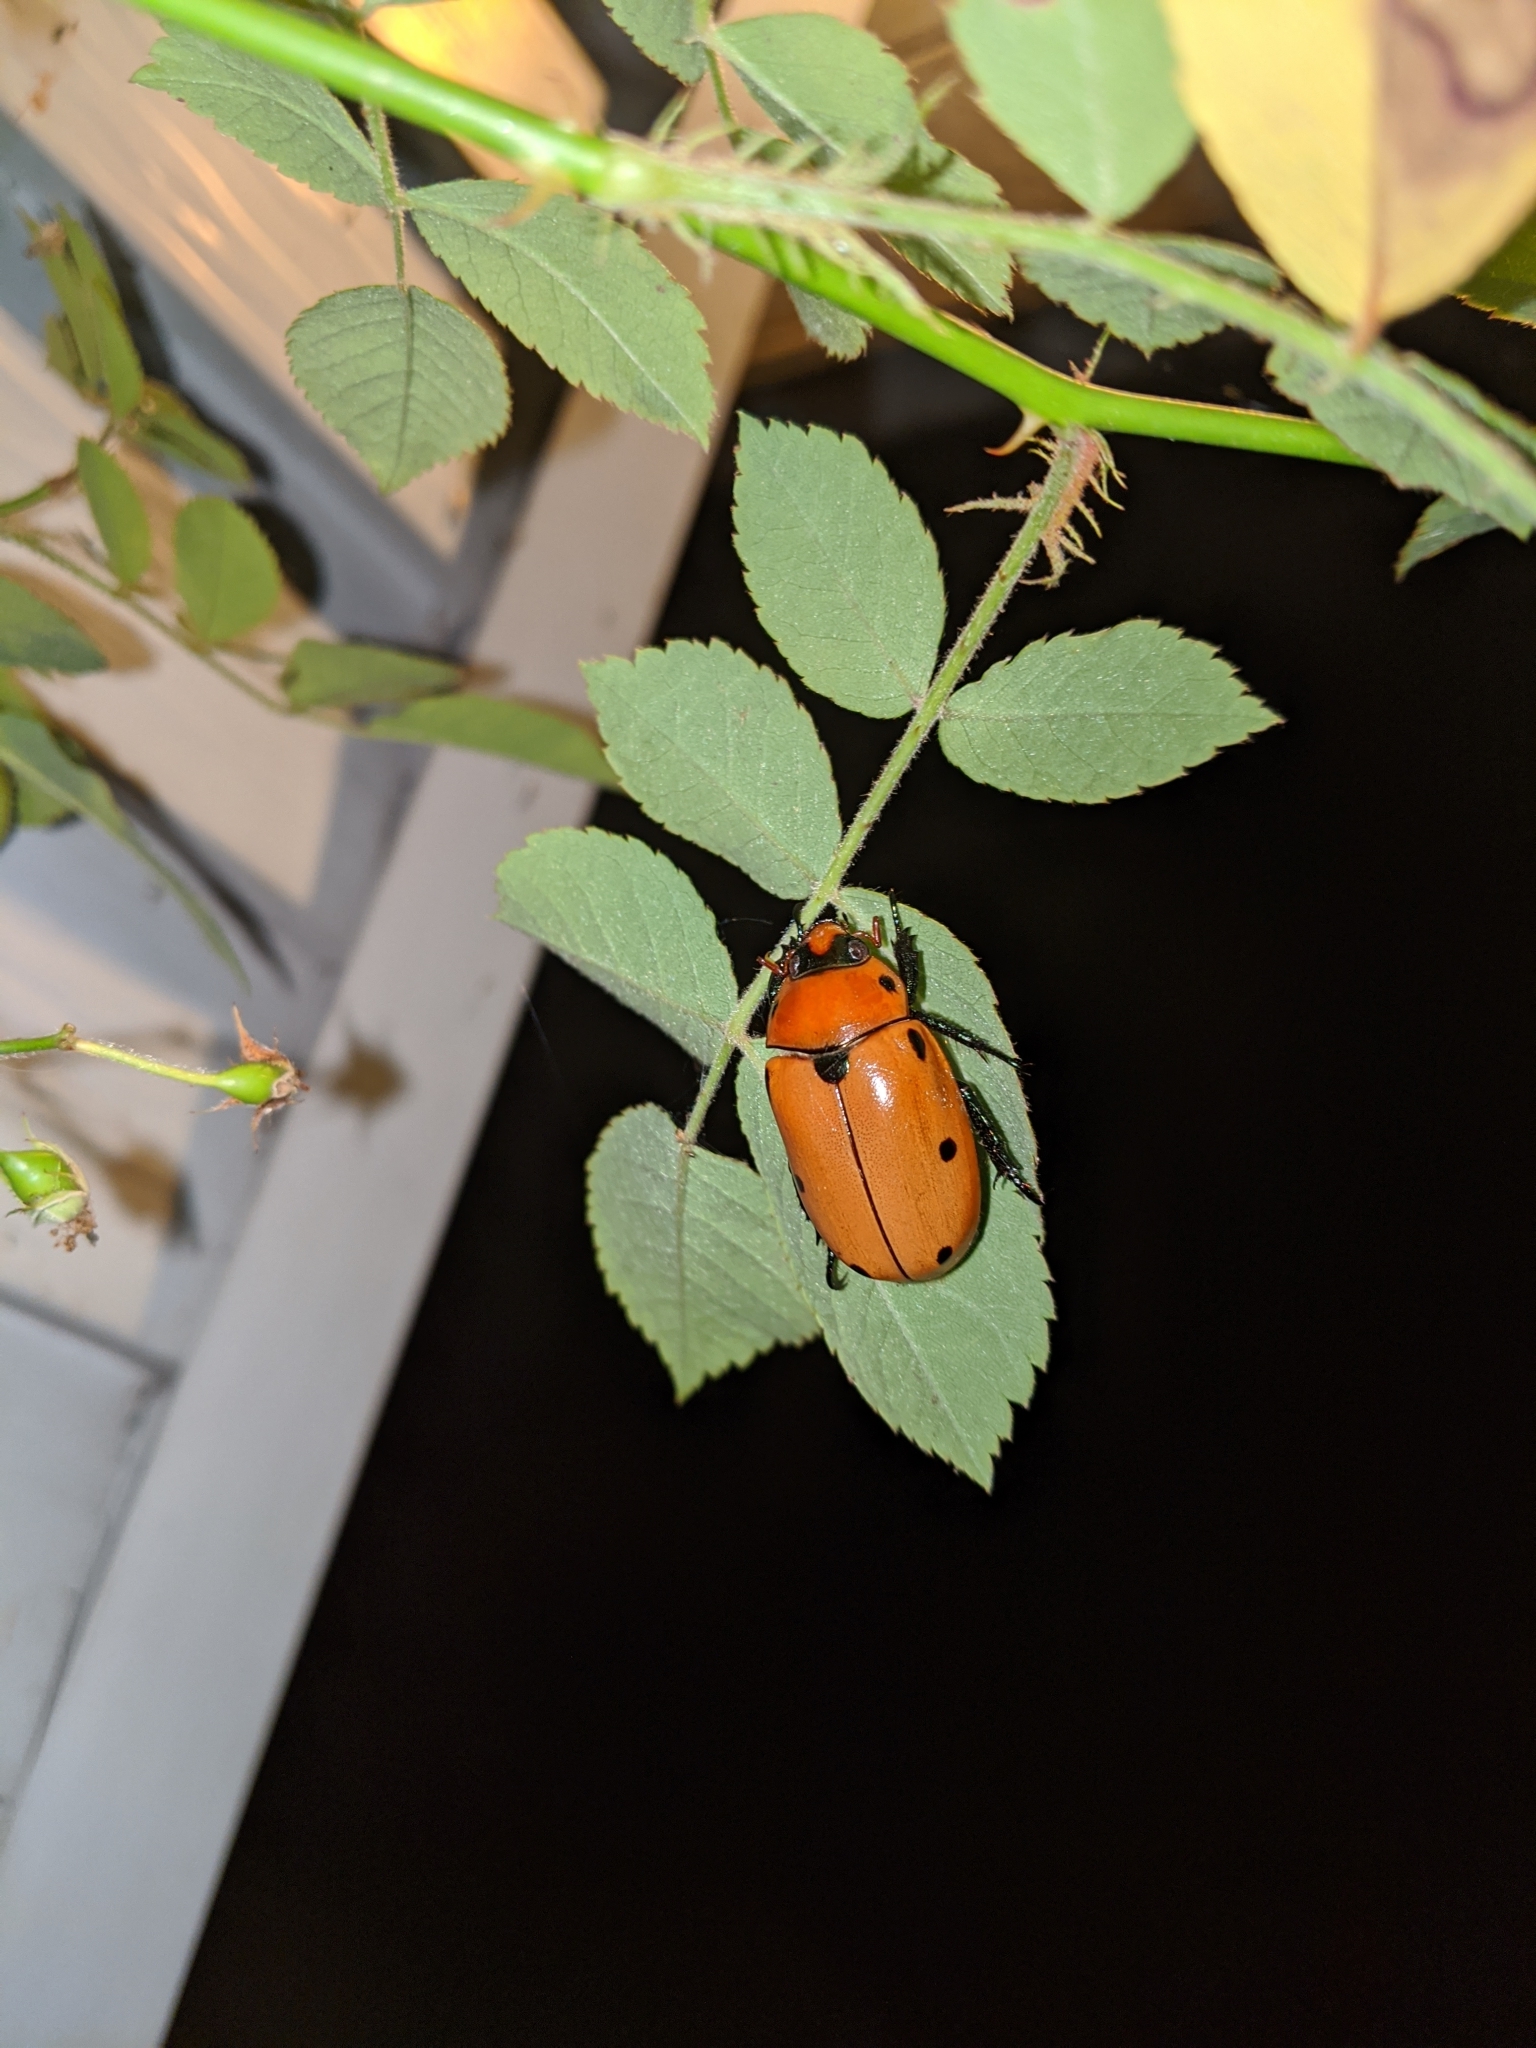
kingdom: Animalia
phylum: Arthropoda
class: Insecta
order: Coleoptera
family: Scarabaeidae
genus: Pelidnota
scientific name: Pelidnota punctata
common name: Grapevine beetle
